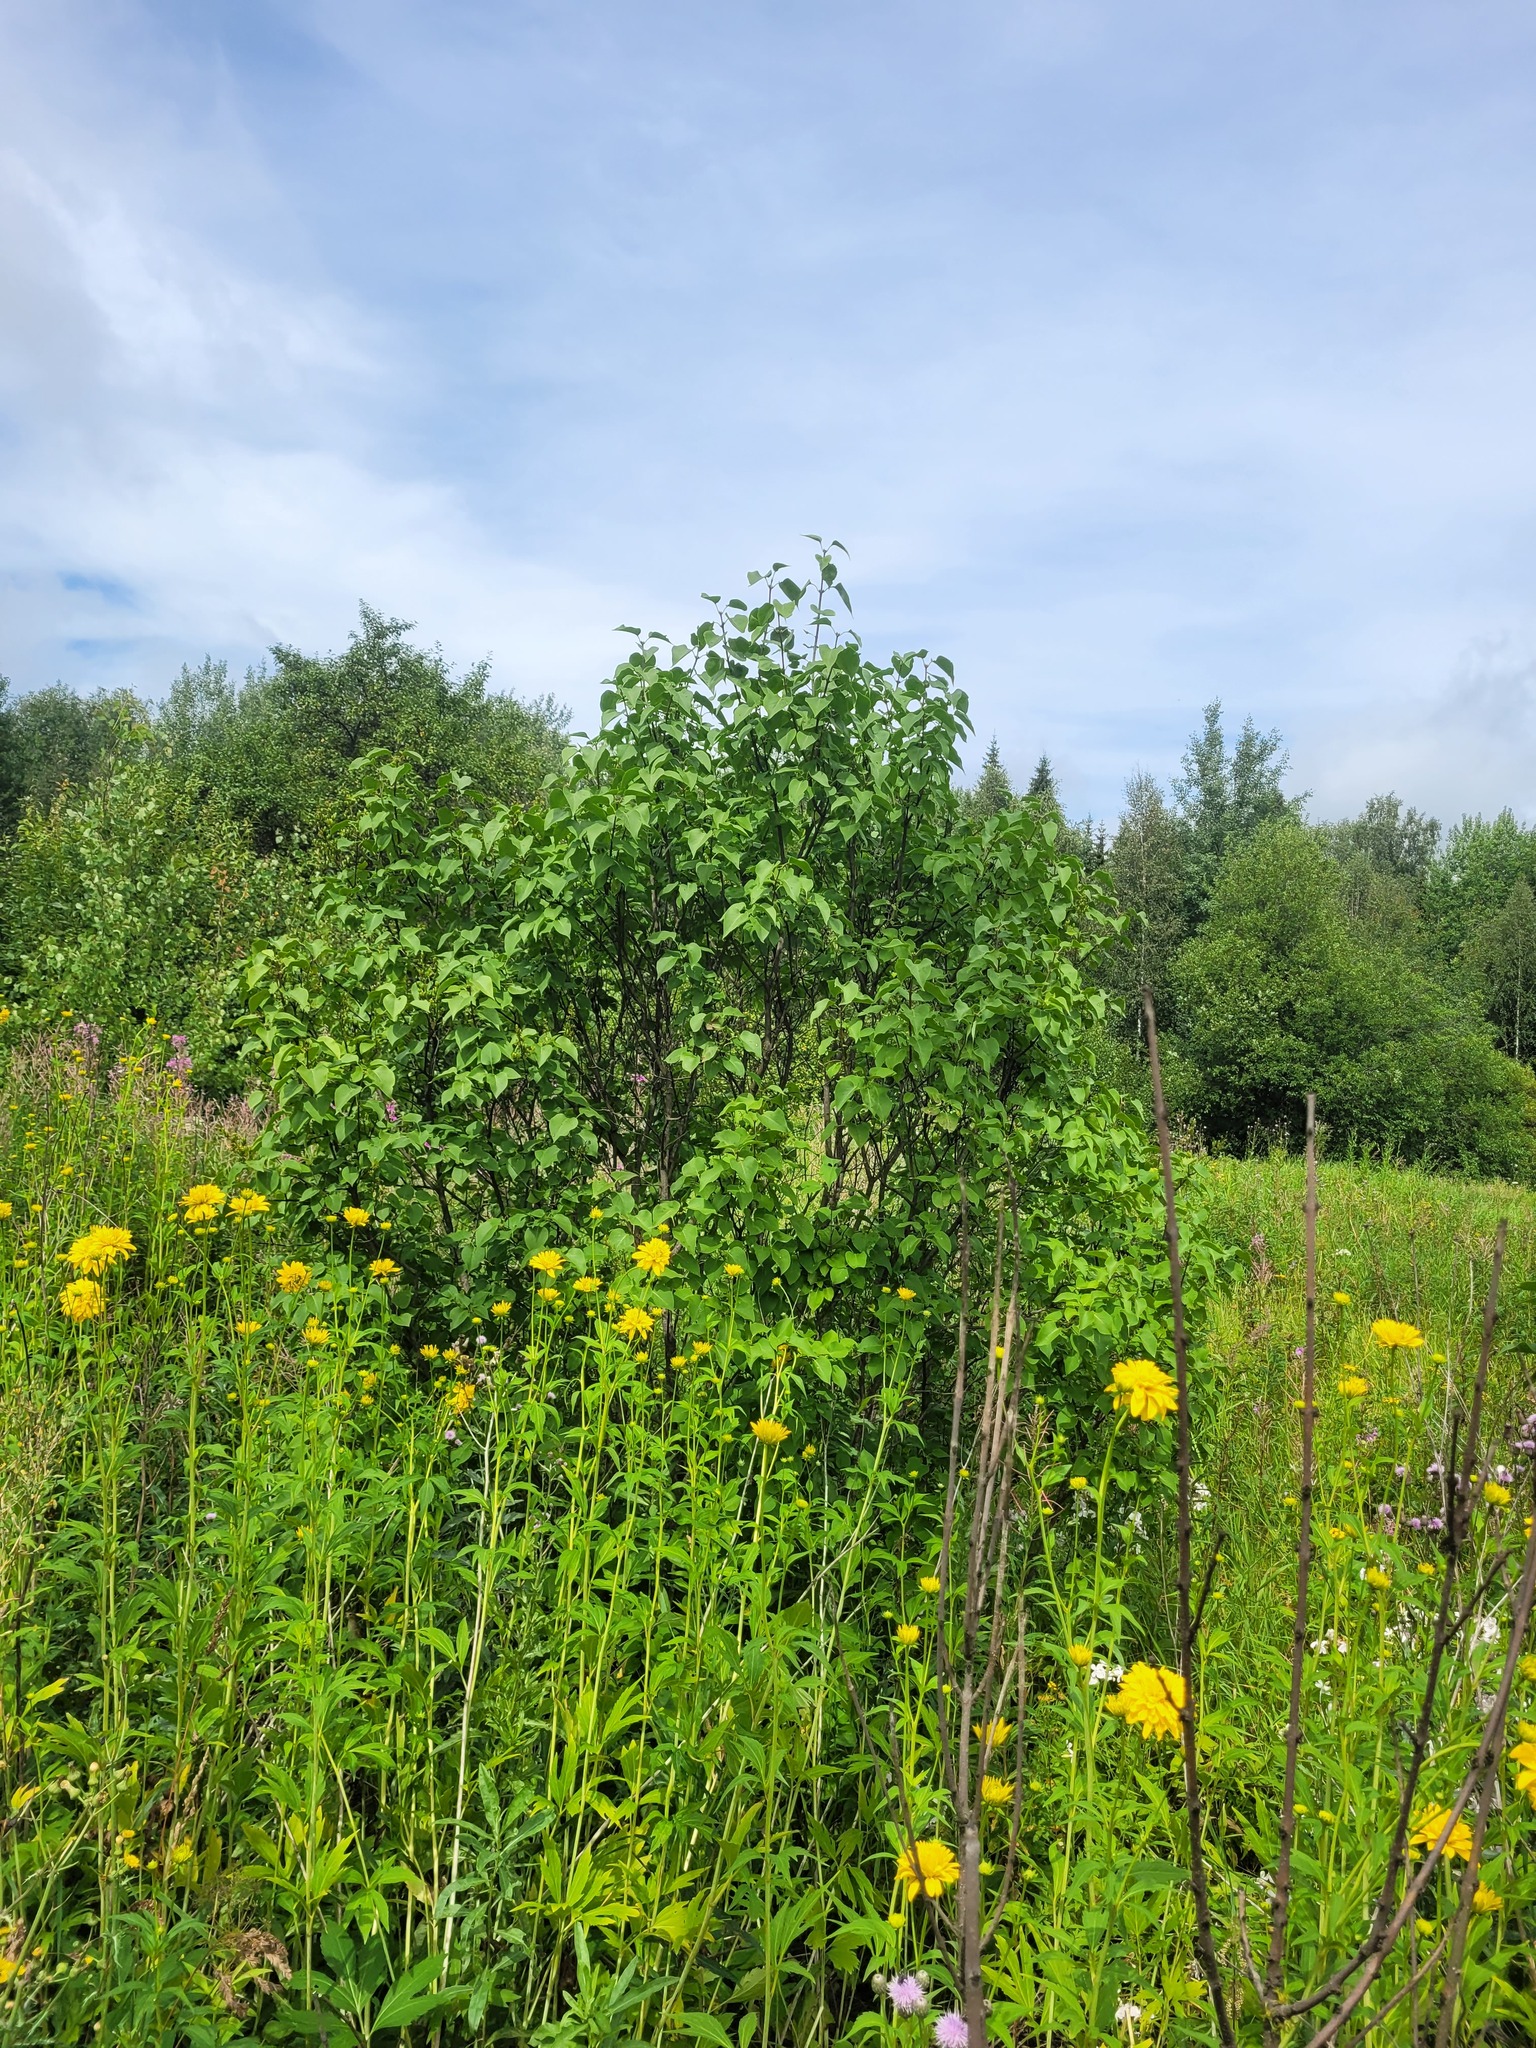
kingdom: Plantae
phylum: Tracheophyta
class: Magnoliopsida
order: Lamiales
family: Oleaceae
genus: Syringa
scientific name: Syringa vulgaris
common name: Common lilac
